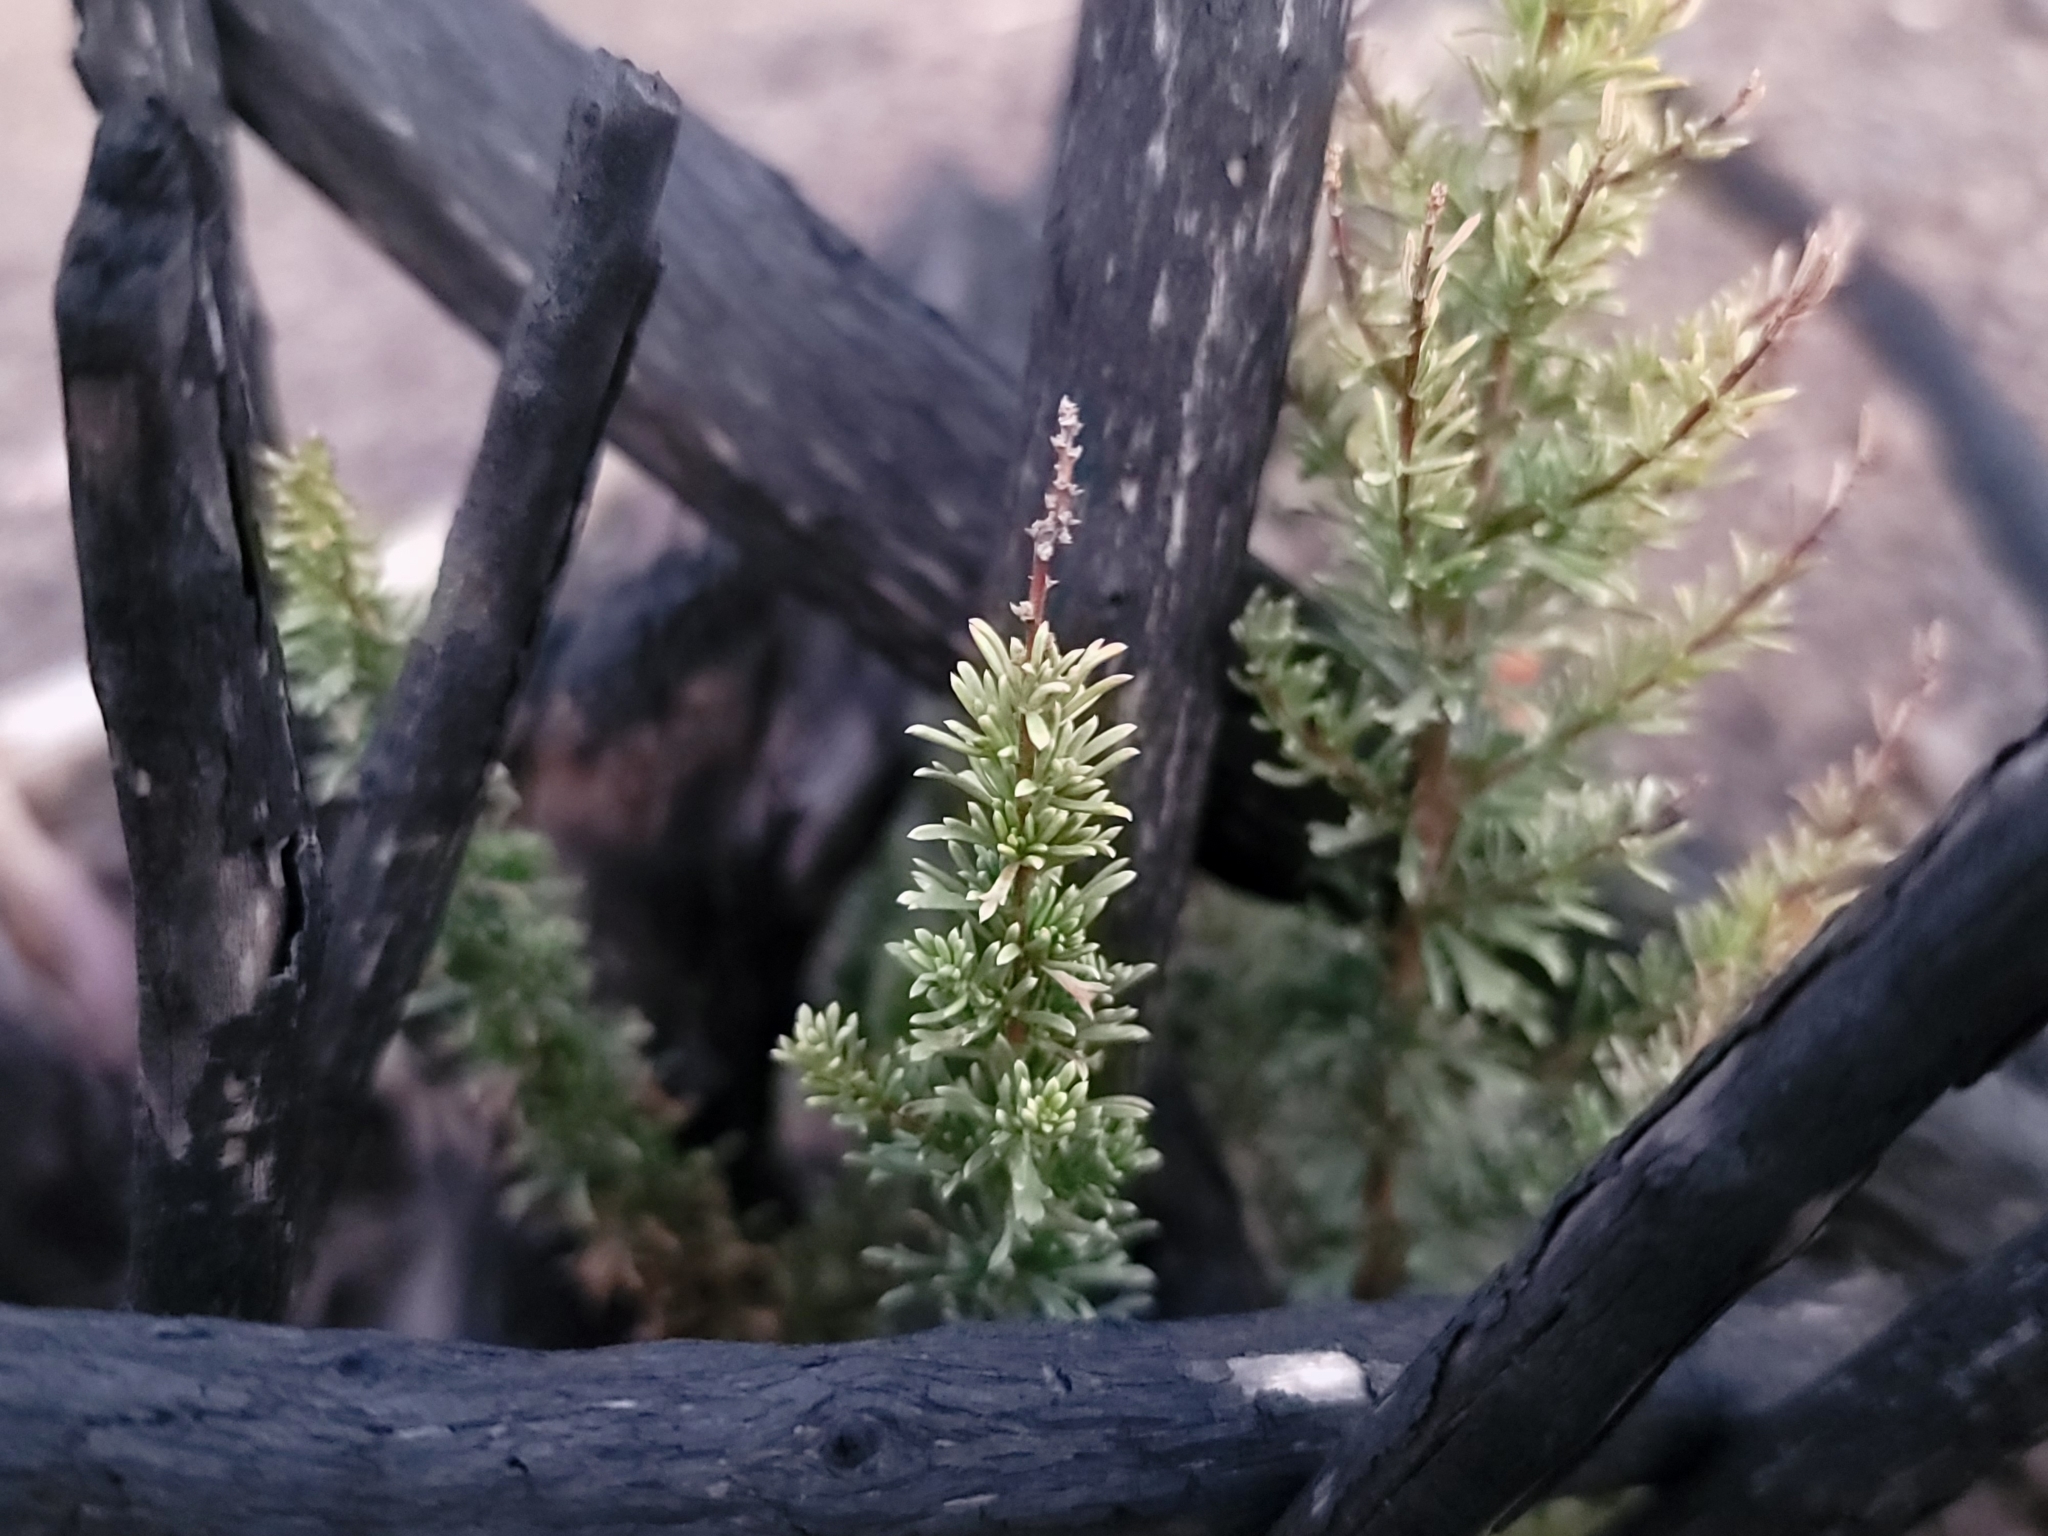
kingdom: Plantae
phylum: Tracheophyta
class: Magnoliopsida
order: Rosales
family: Rosaceae
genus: Adenostoma
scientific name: Adenostoma fasciculatum
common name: Chamise
